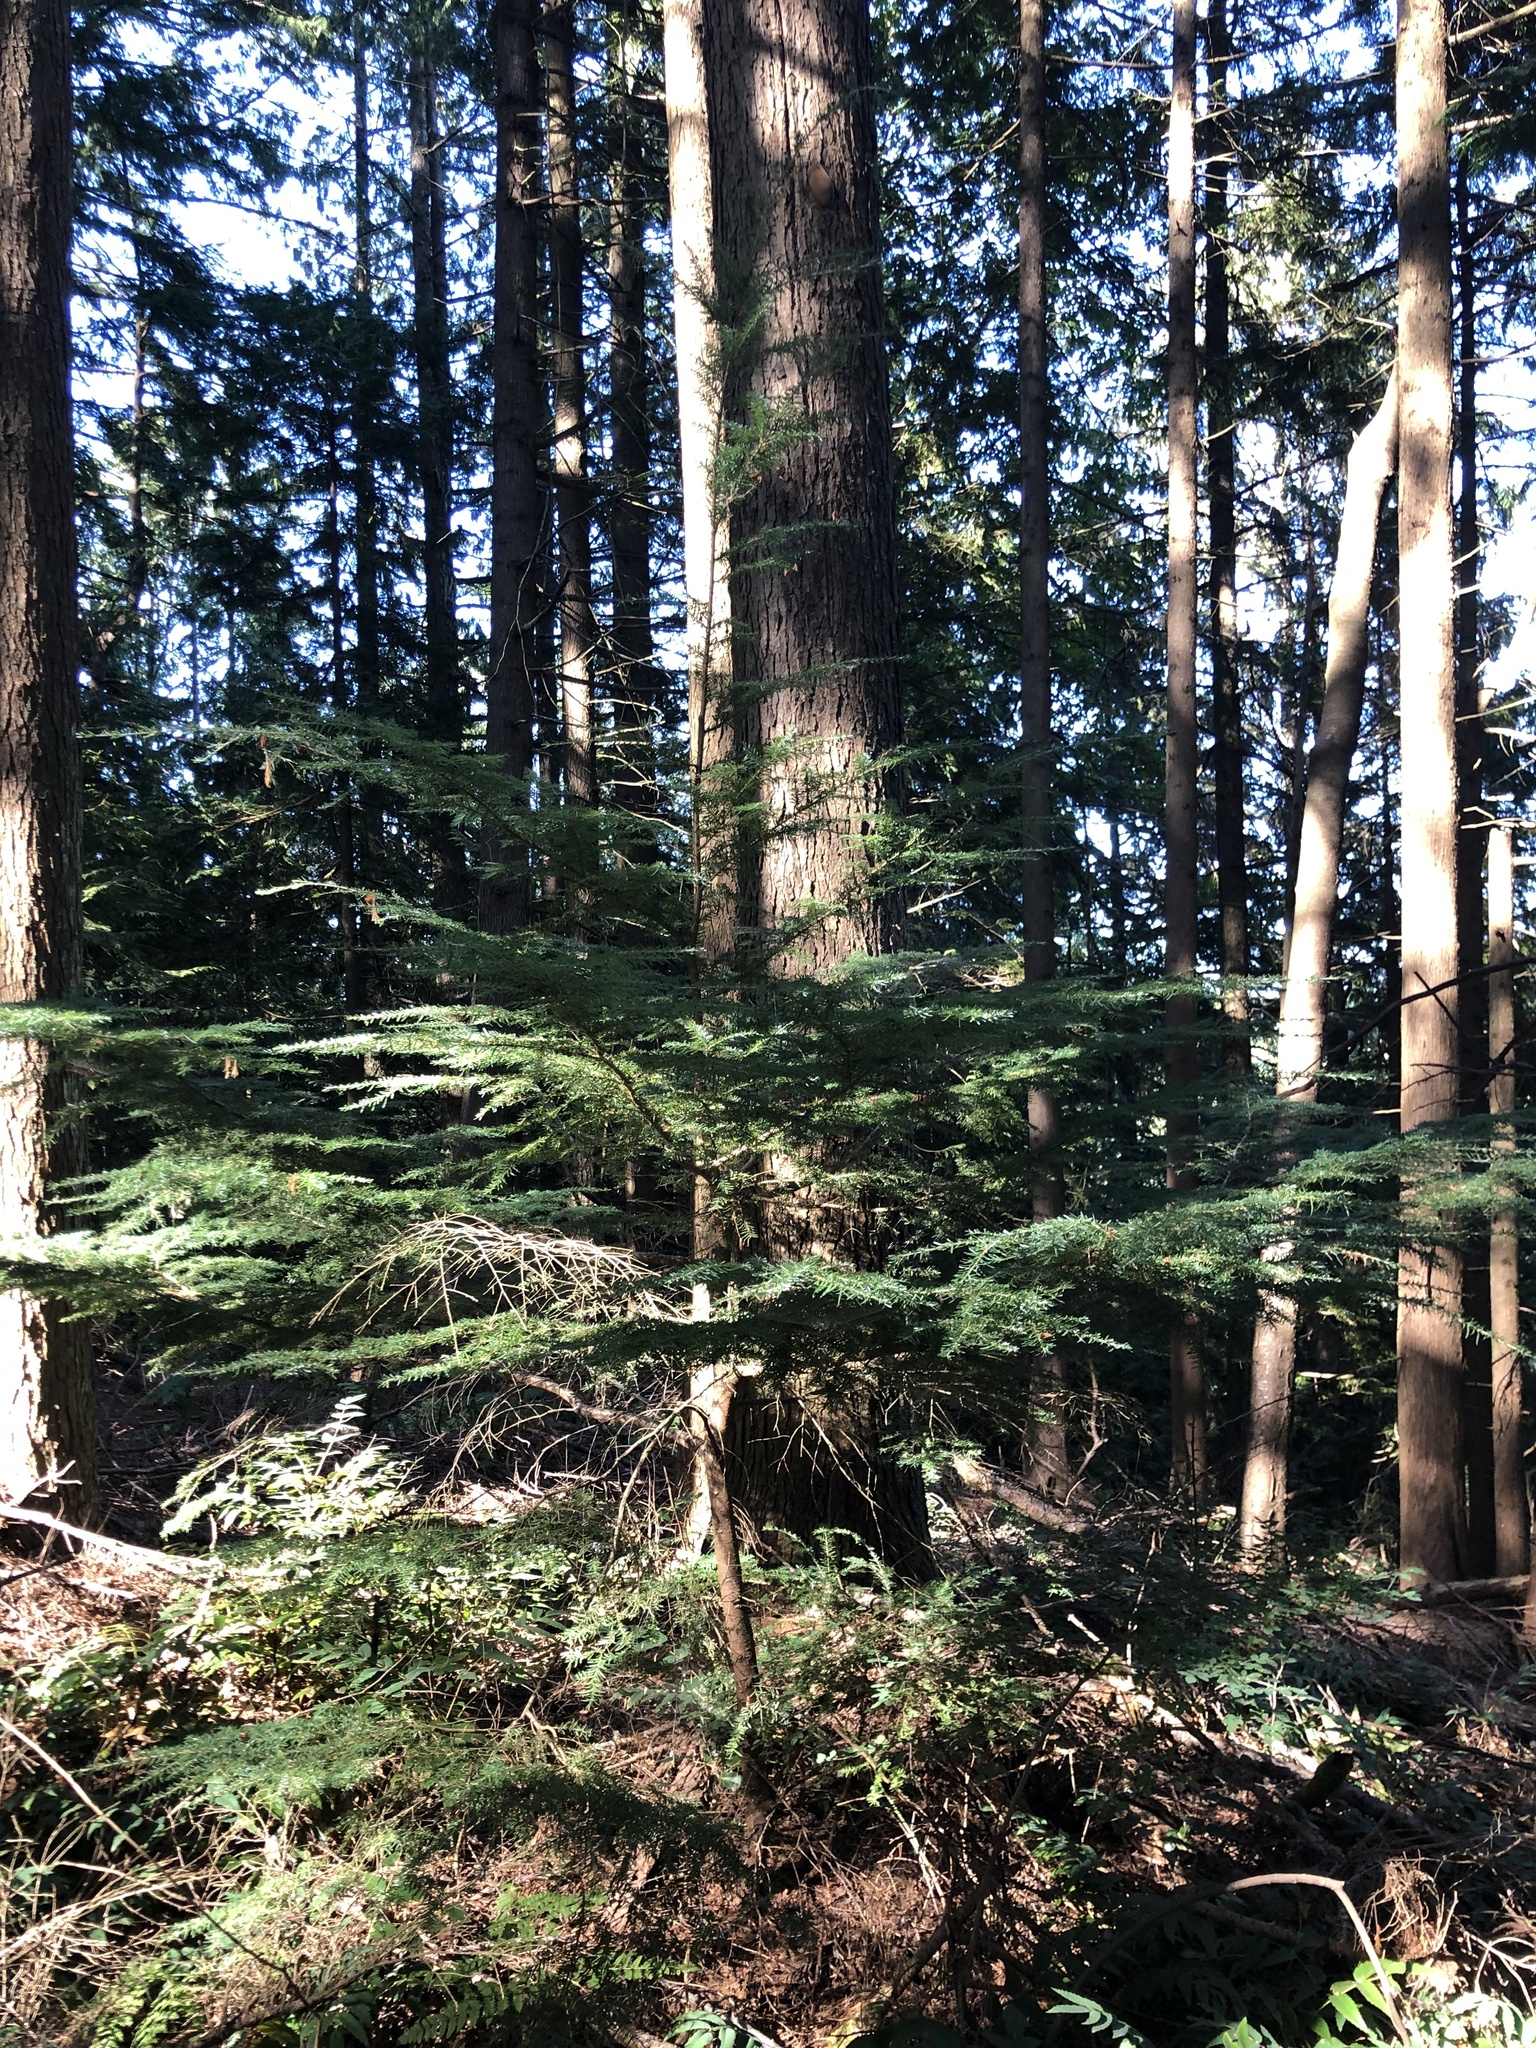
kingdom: Plantae
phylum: Tracheophyta
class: Pinopsida
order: Pinales
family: Pinaceae
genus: Tsuga
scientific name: Tsuga heterophylla
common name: Western hemlock
